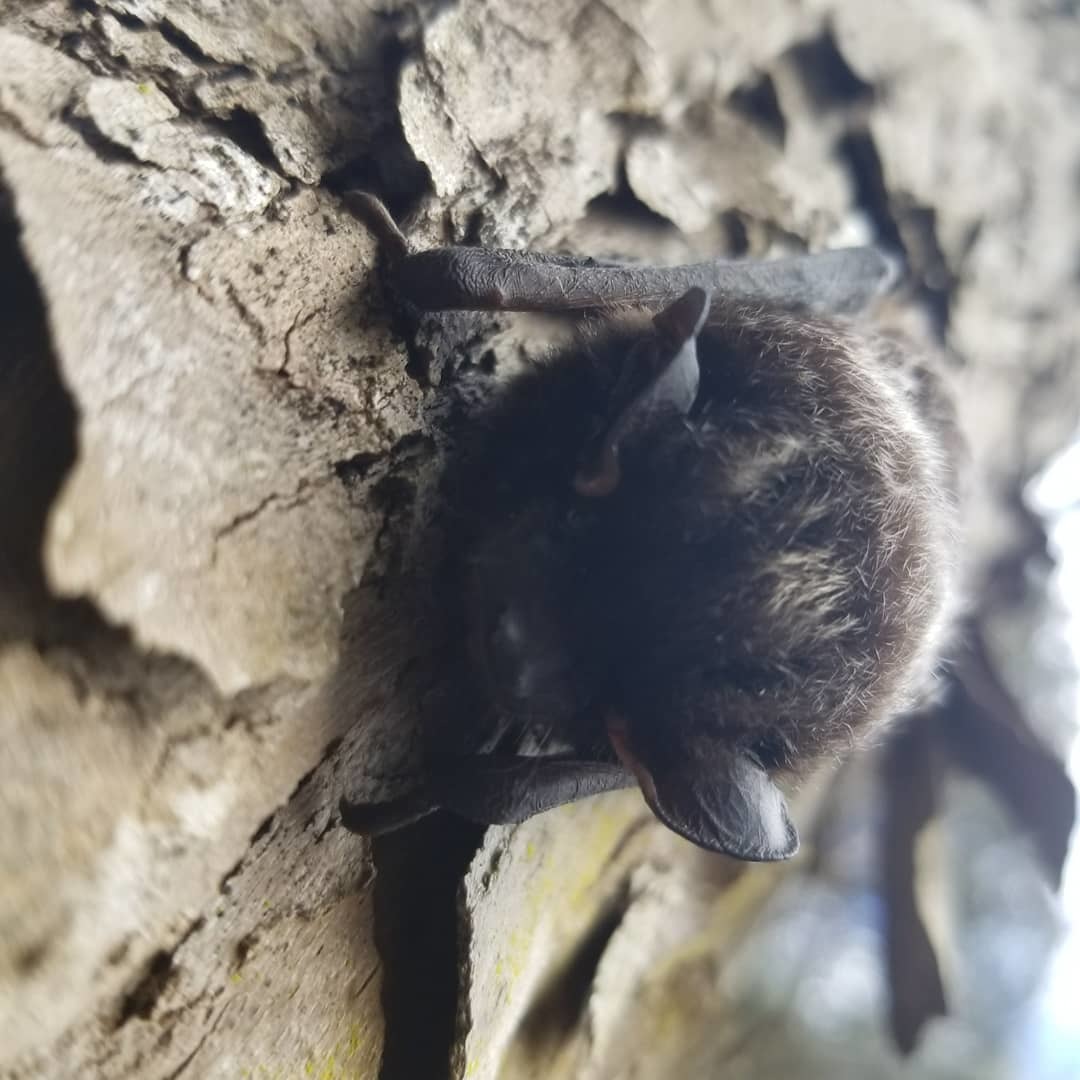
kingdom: Animalia
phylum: Chordata
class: Mammalia
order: Chiroptera
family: Vespertilionidae
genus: Lasionycteris
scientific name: Lasionycteris noctivagans
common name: Silver-haired bat
